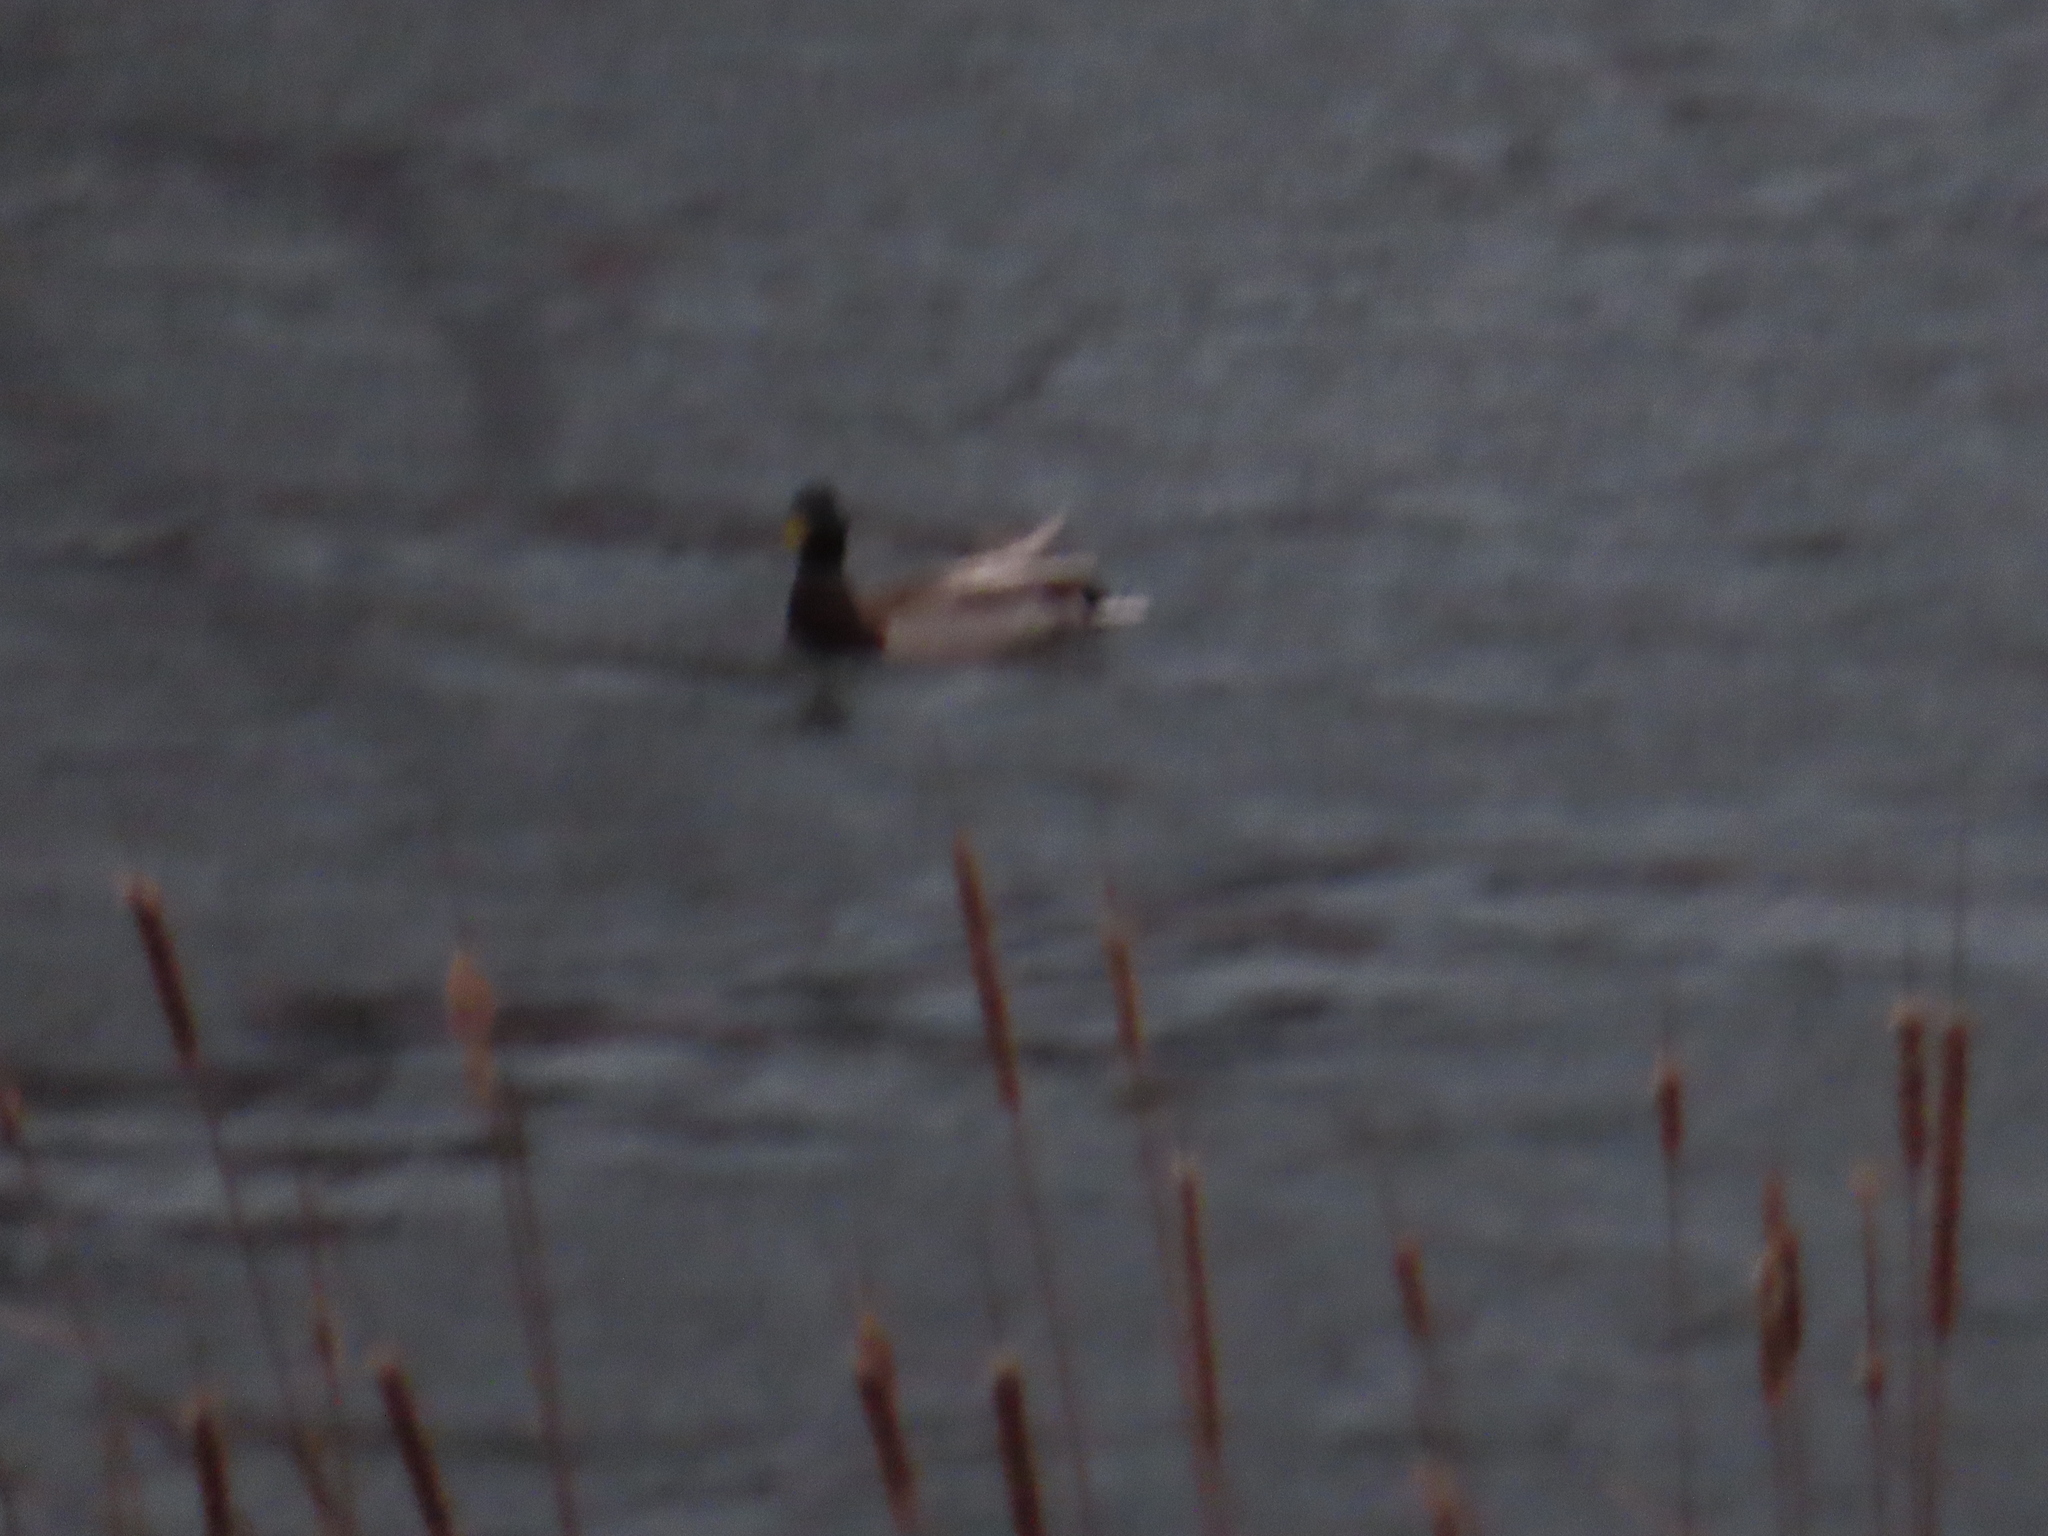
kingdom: Animalia
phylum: Chordata
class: Aves
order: Anseriformes
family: Anatidae
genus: Anas
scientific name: Anas platyrhynchos
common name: Mallard
